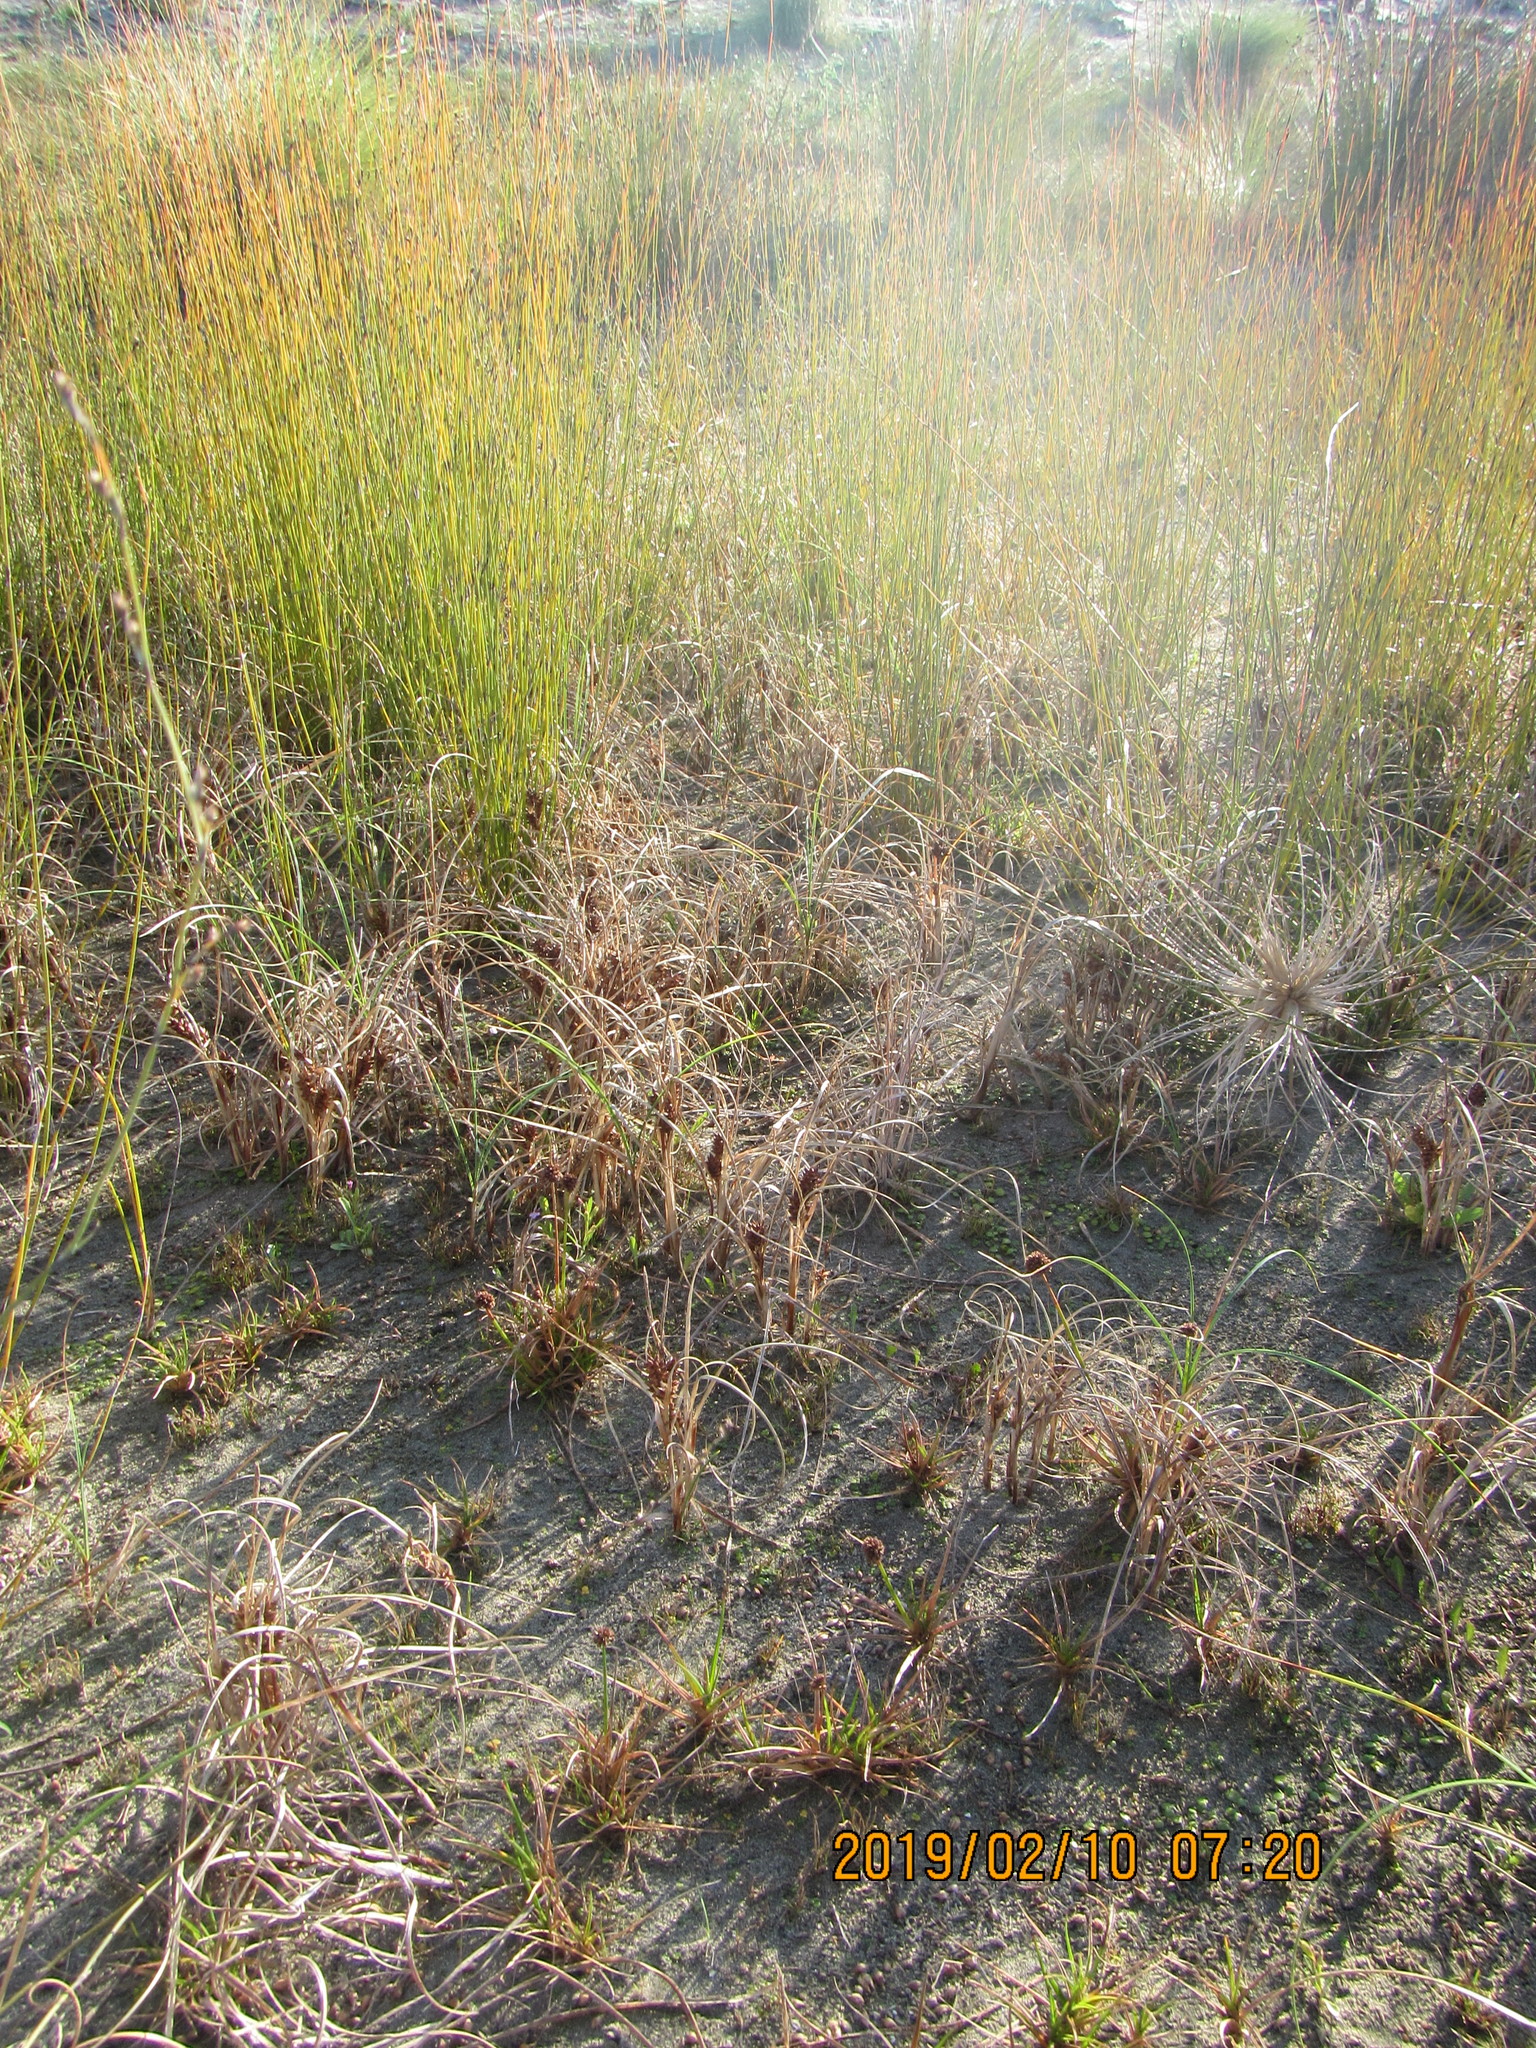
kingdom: Plantae
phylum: Tracheophyta
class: Liliopsida
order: Poales
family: Juncaceae
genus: Juncus
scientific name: Juncus caespiticius
